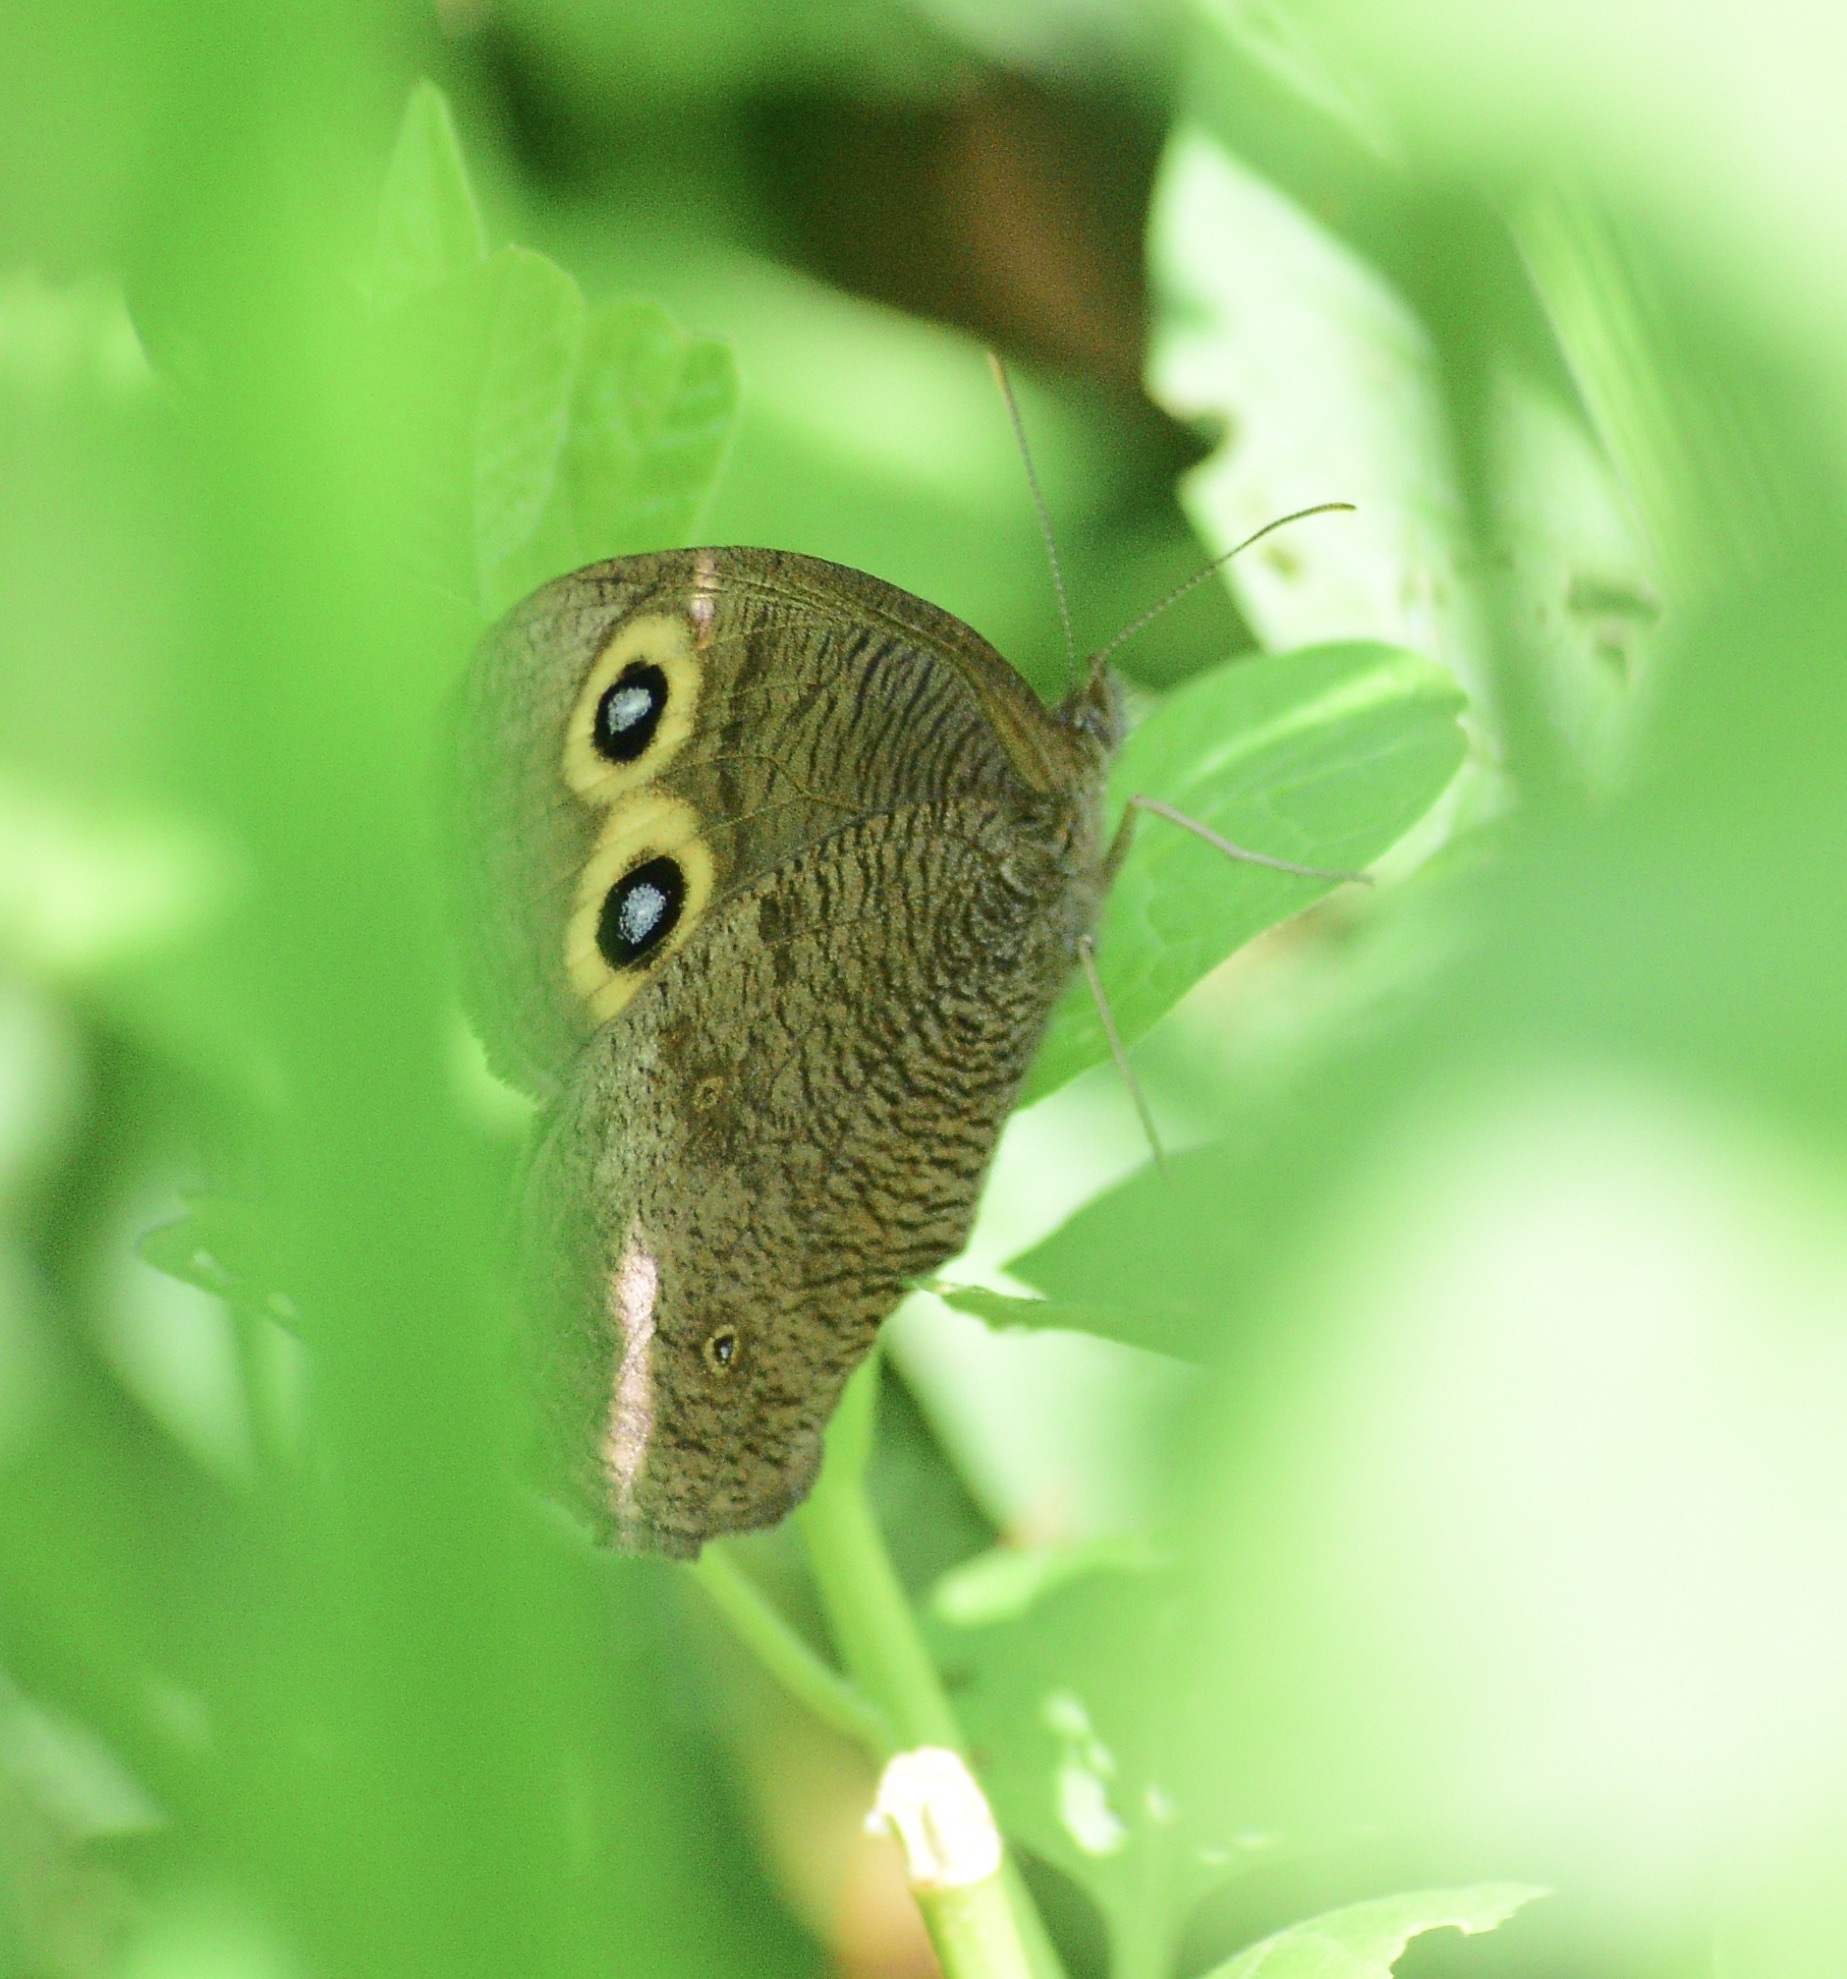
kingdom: Animalia
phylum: Arthropoda
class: Insecta
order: Lepidoptera
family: Nymphalidae
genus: Cercyonis
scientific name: Cercyonis pegala
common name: Common wood-nymph
